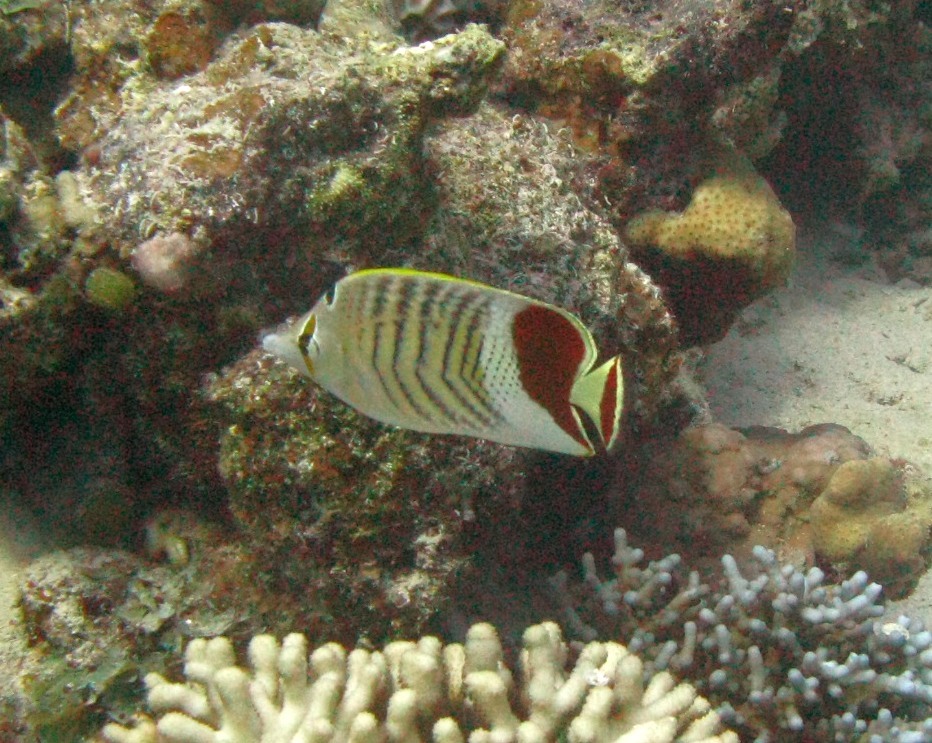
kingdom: Animalia
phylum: Chordata
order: Perciformes
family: Chaetodontidae
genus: Chaetodon
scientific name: Chaetodon paucifasciatus
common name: Crown butterflyfish
